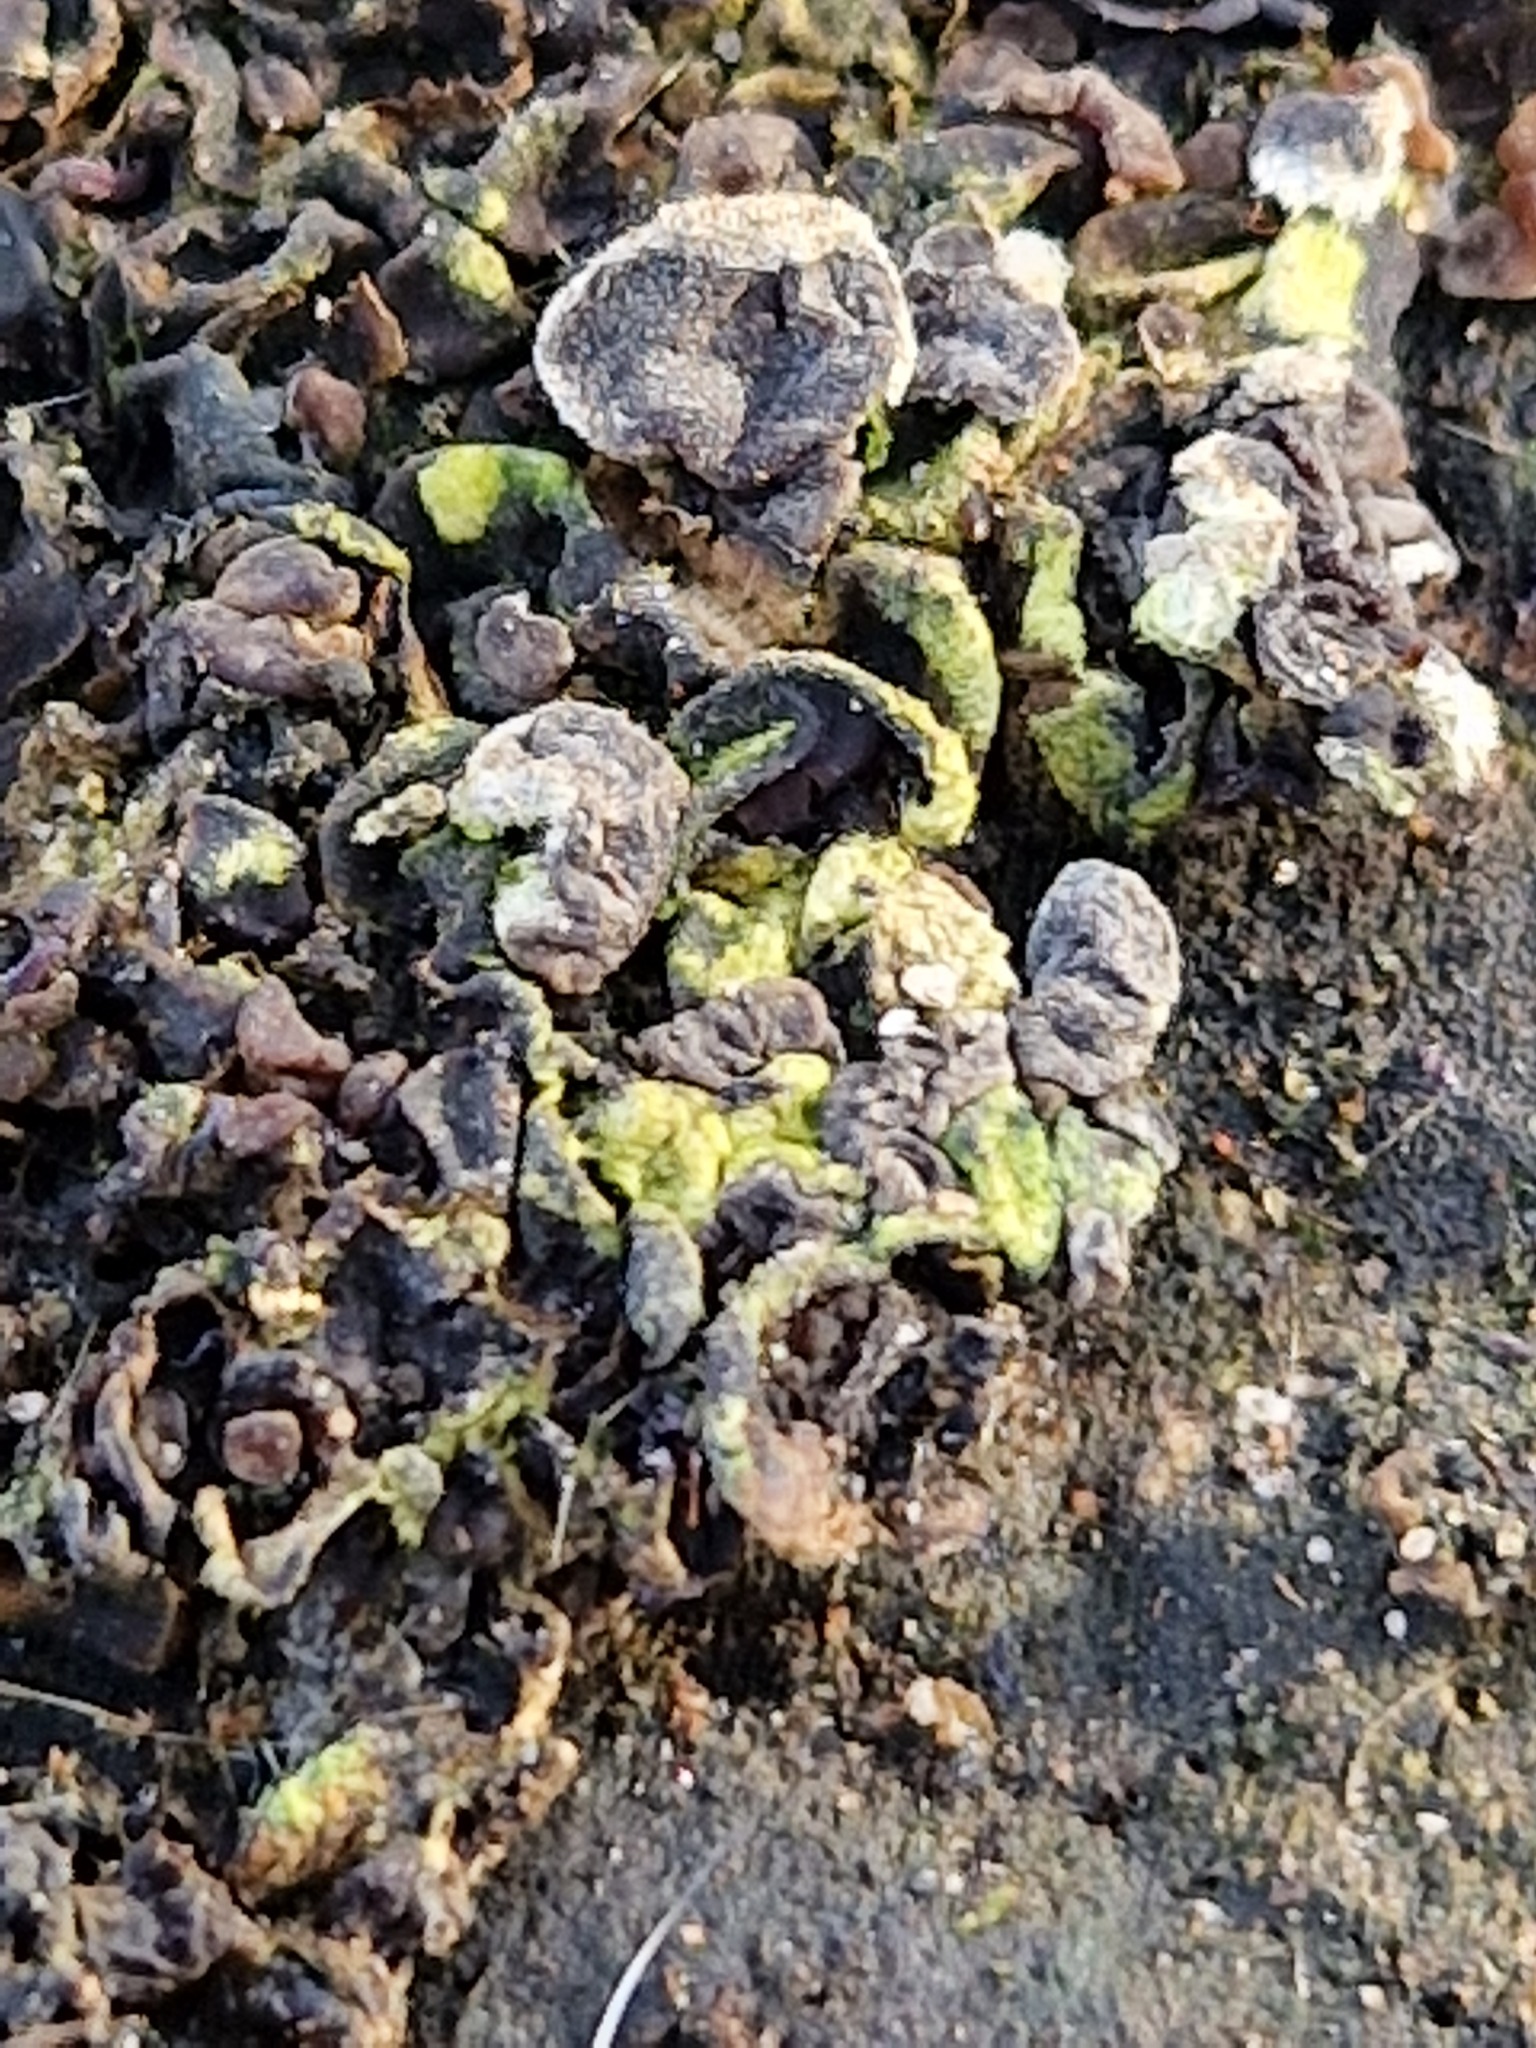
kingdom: Fungi
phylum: Basidiomycota
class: Agaricomycetes
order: Auriculariales
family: Auriculariaceae
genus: Auricularia
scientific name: Auricularia mesenterica
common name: Tripe fungus
